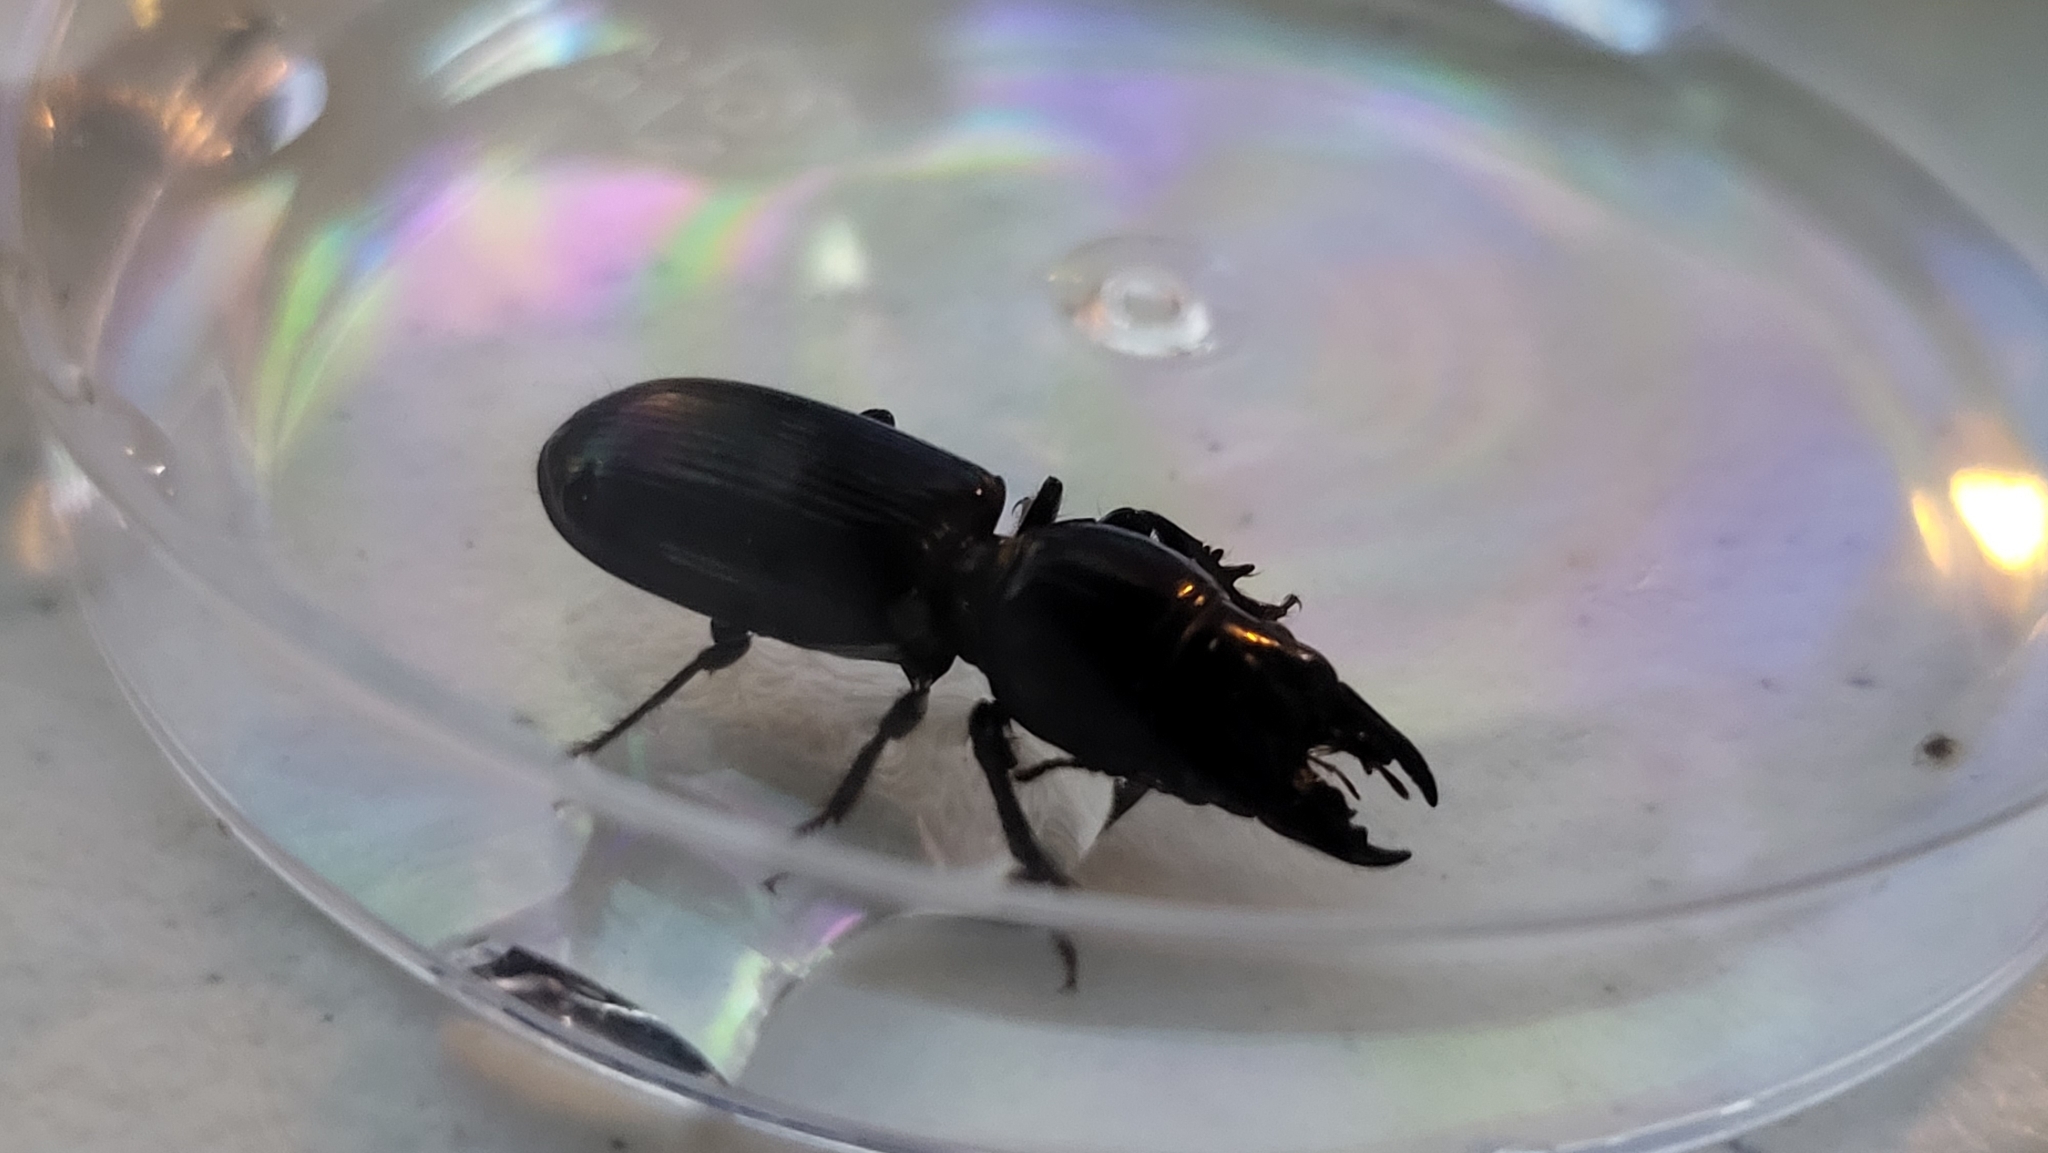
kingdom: Animalia
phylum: Arthropoda
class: Insecta
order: Coleoptera
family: Carabidae
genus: Scarites
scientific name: Scarites subterraneus
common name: Big-headed ground beetle
